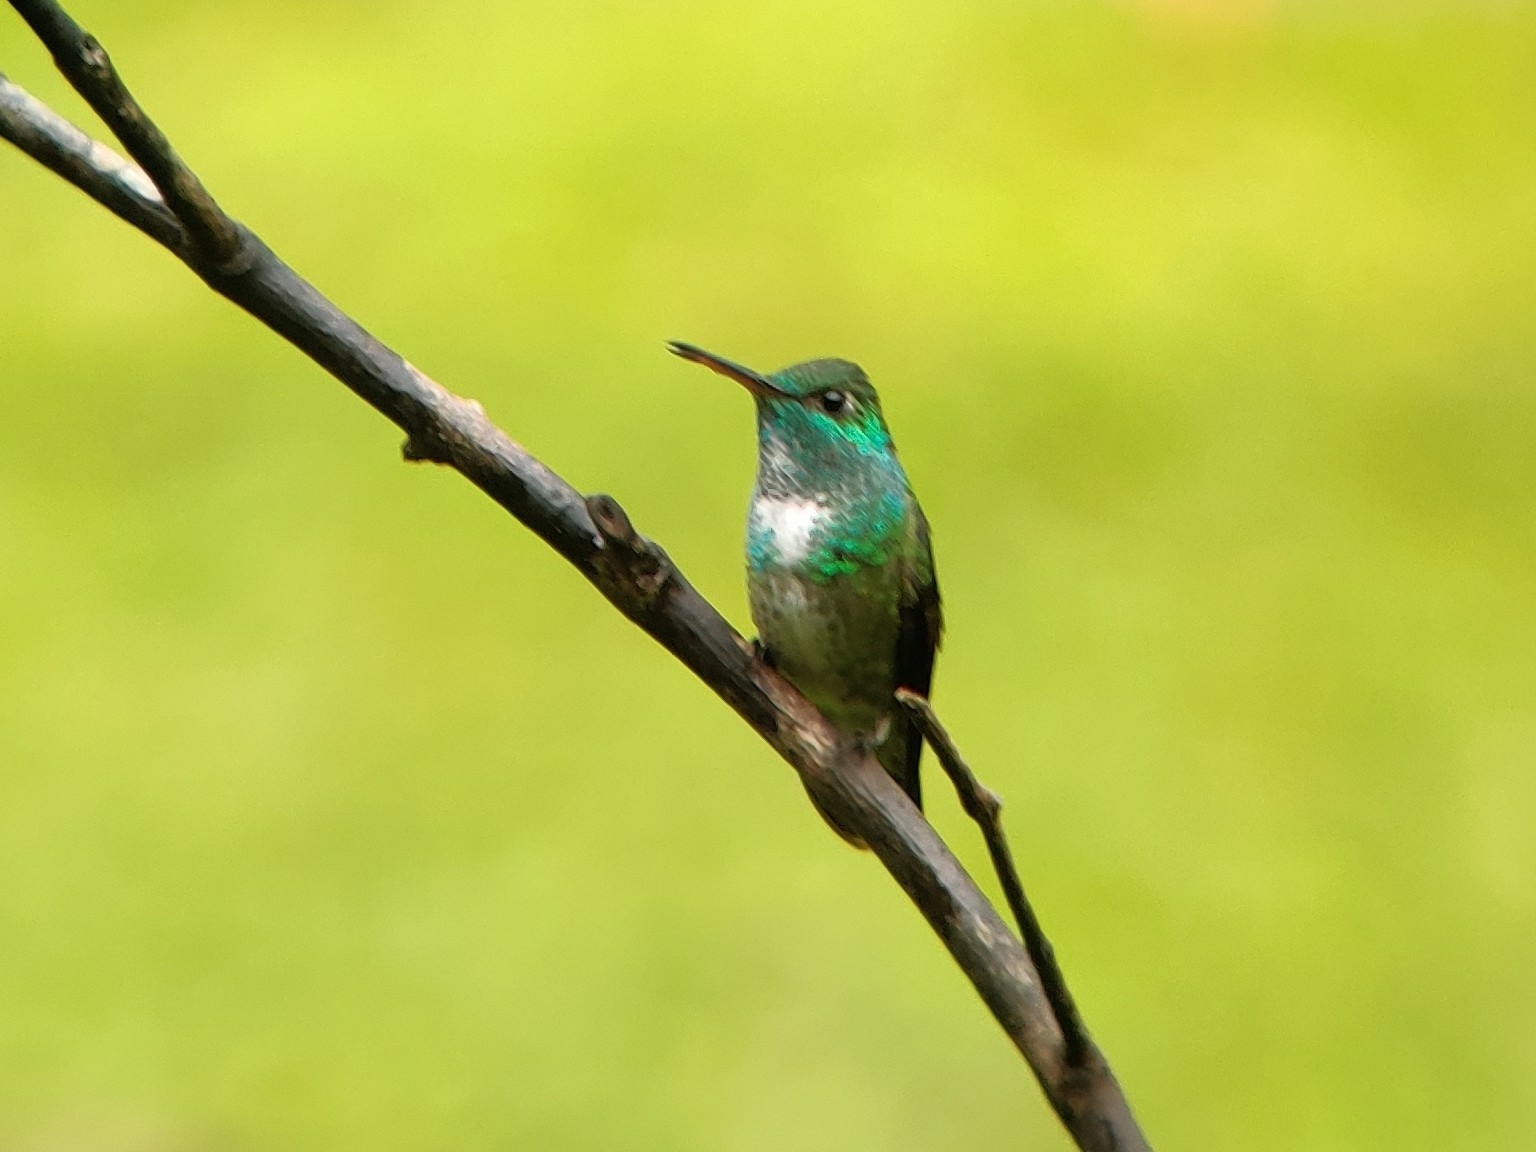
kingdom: Animalia
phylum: Chordata
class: Aves
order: Apodiformes
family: Trochilidae
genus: Chrysuronia
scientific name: Chrysuronia versicolor
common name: Versicolored emerald
